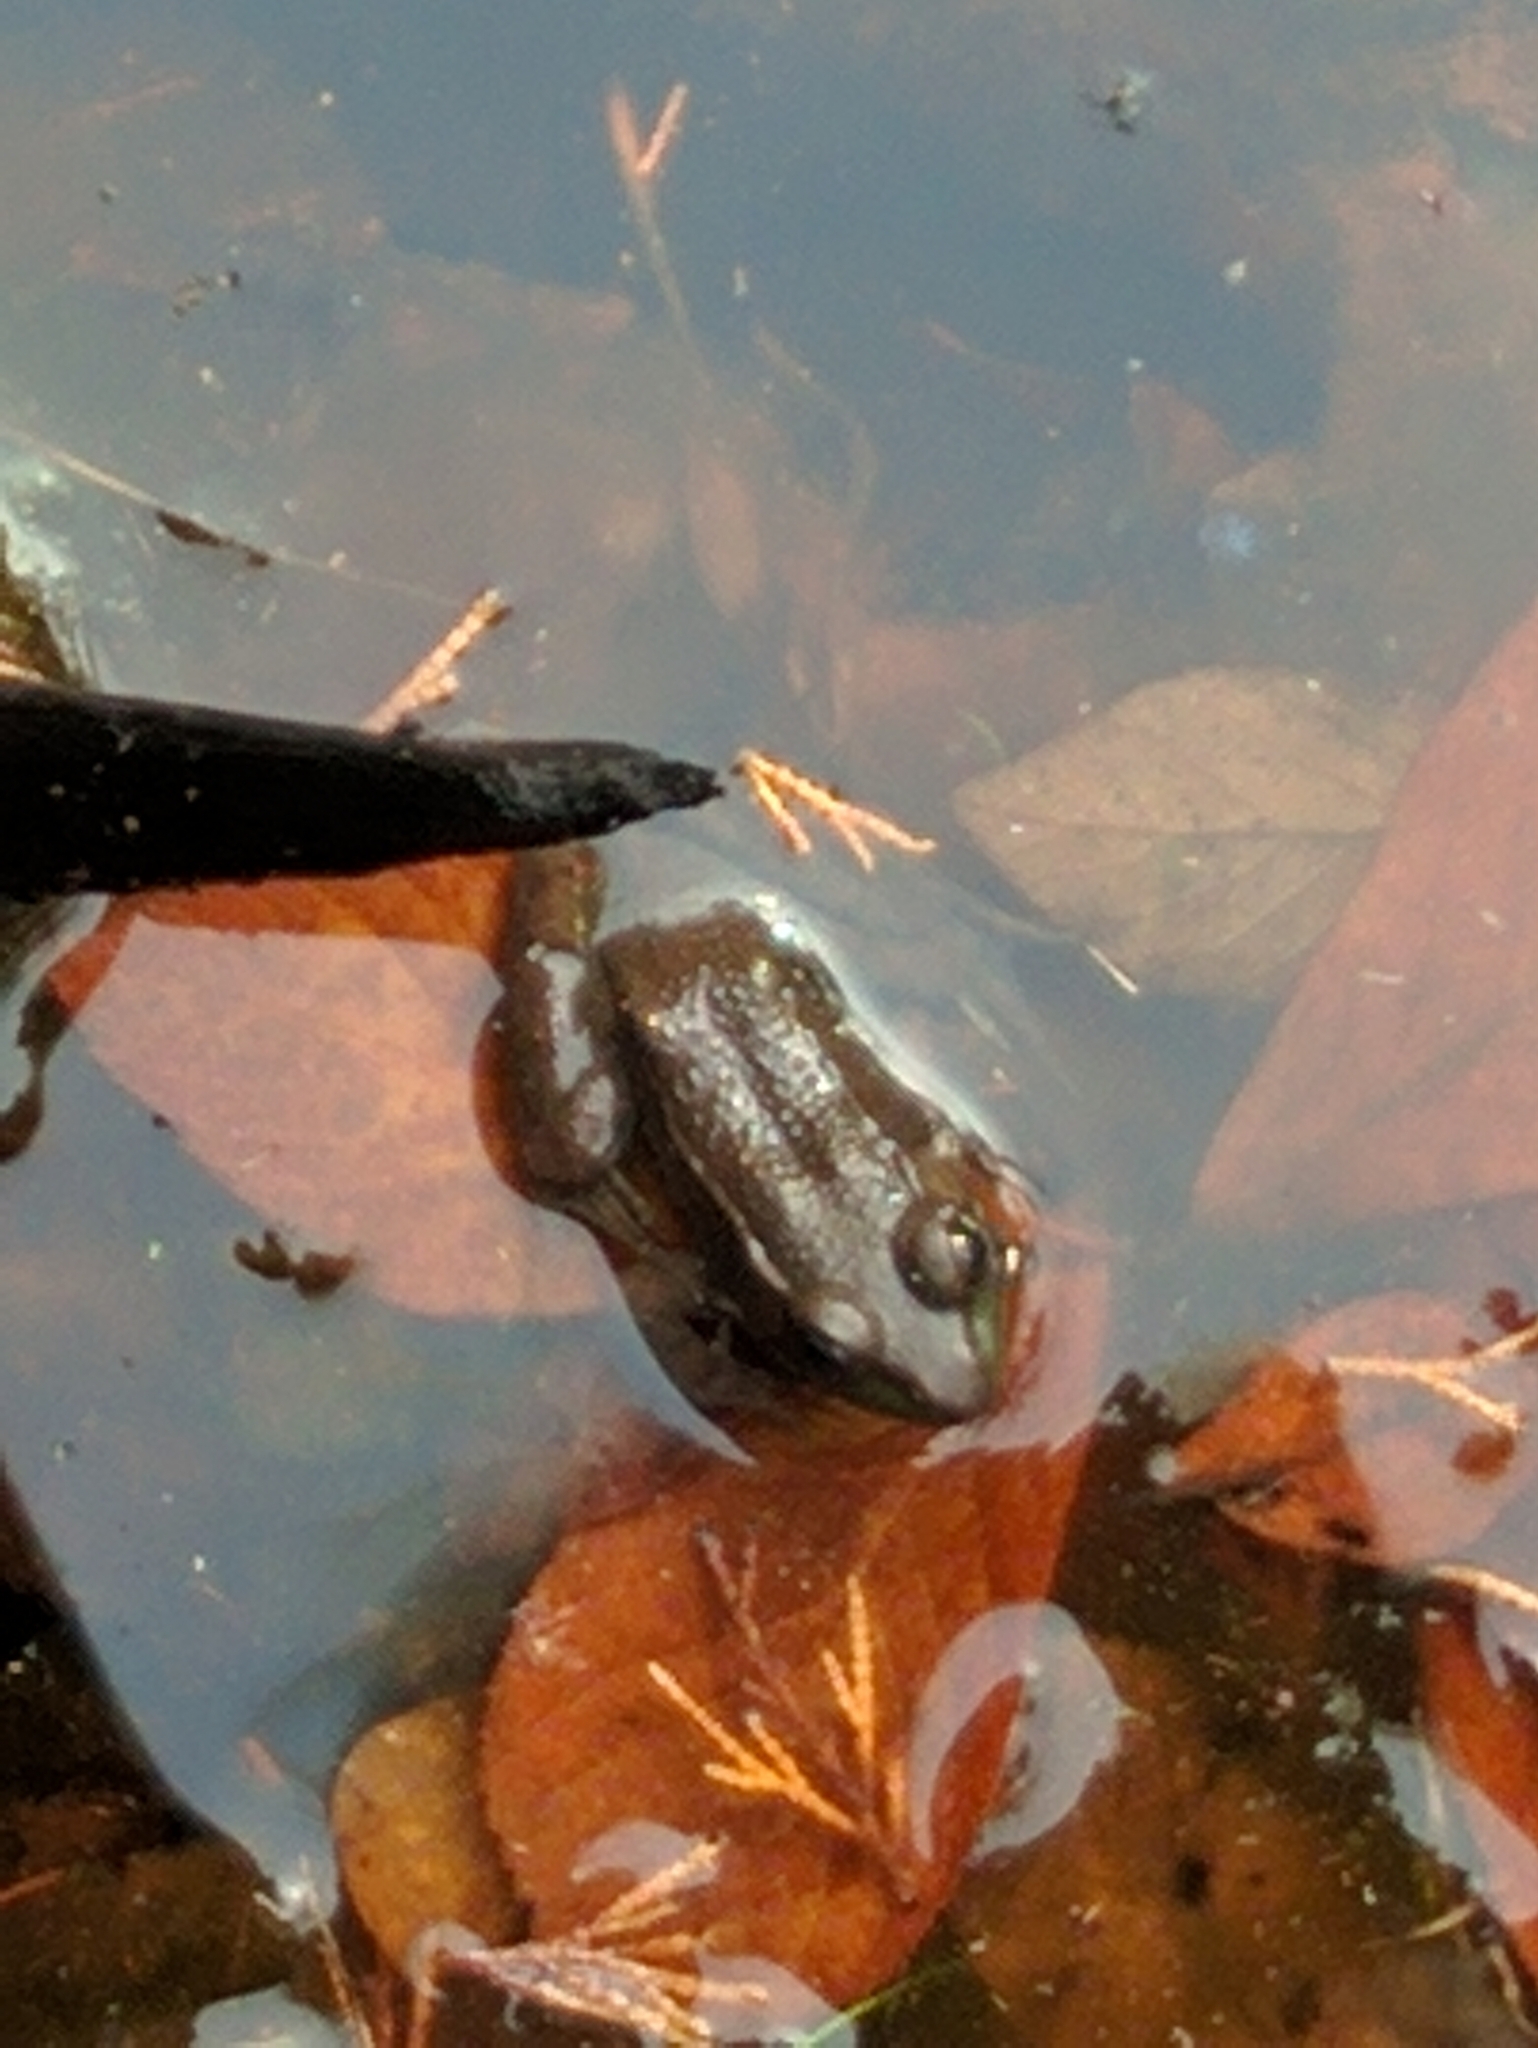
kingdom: Animalia
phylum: Chordata
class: Amphibia
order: Anura
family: Ranidae
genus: Lithobates
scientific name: Lithobates clamitans
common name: Green frog
